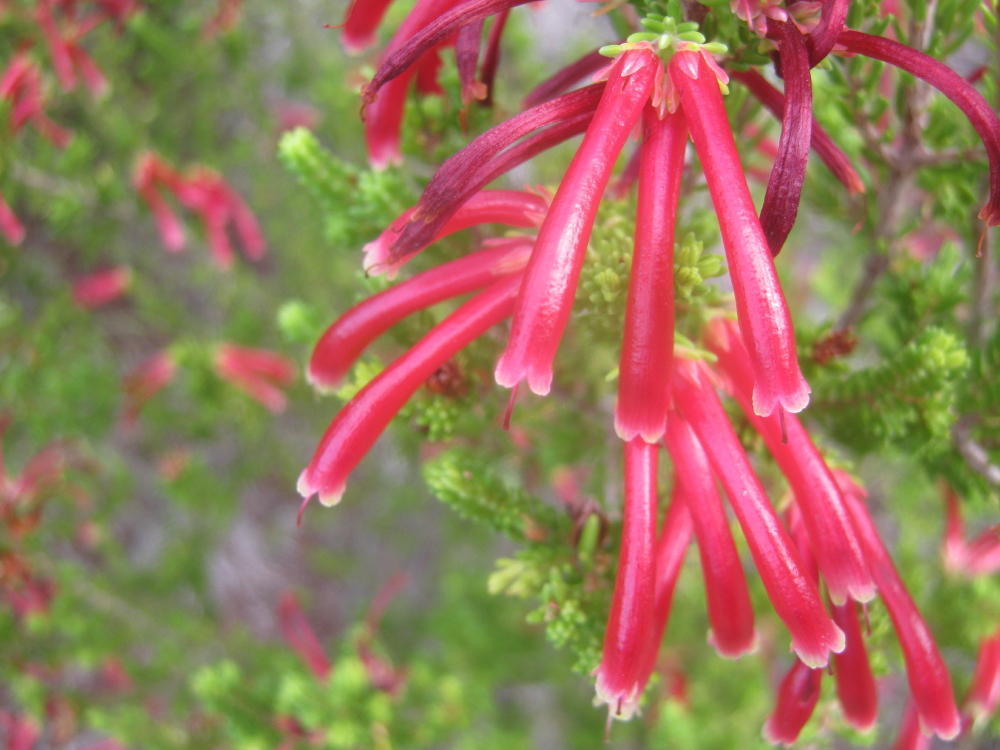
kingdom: Plantae
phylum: Tracheophyta
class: Magnoliopsida
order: Ericales
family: Ericaceae
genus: Erica
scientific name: Erica discolor
